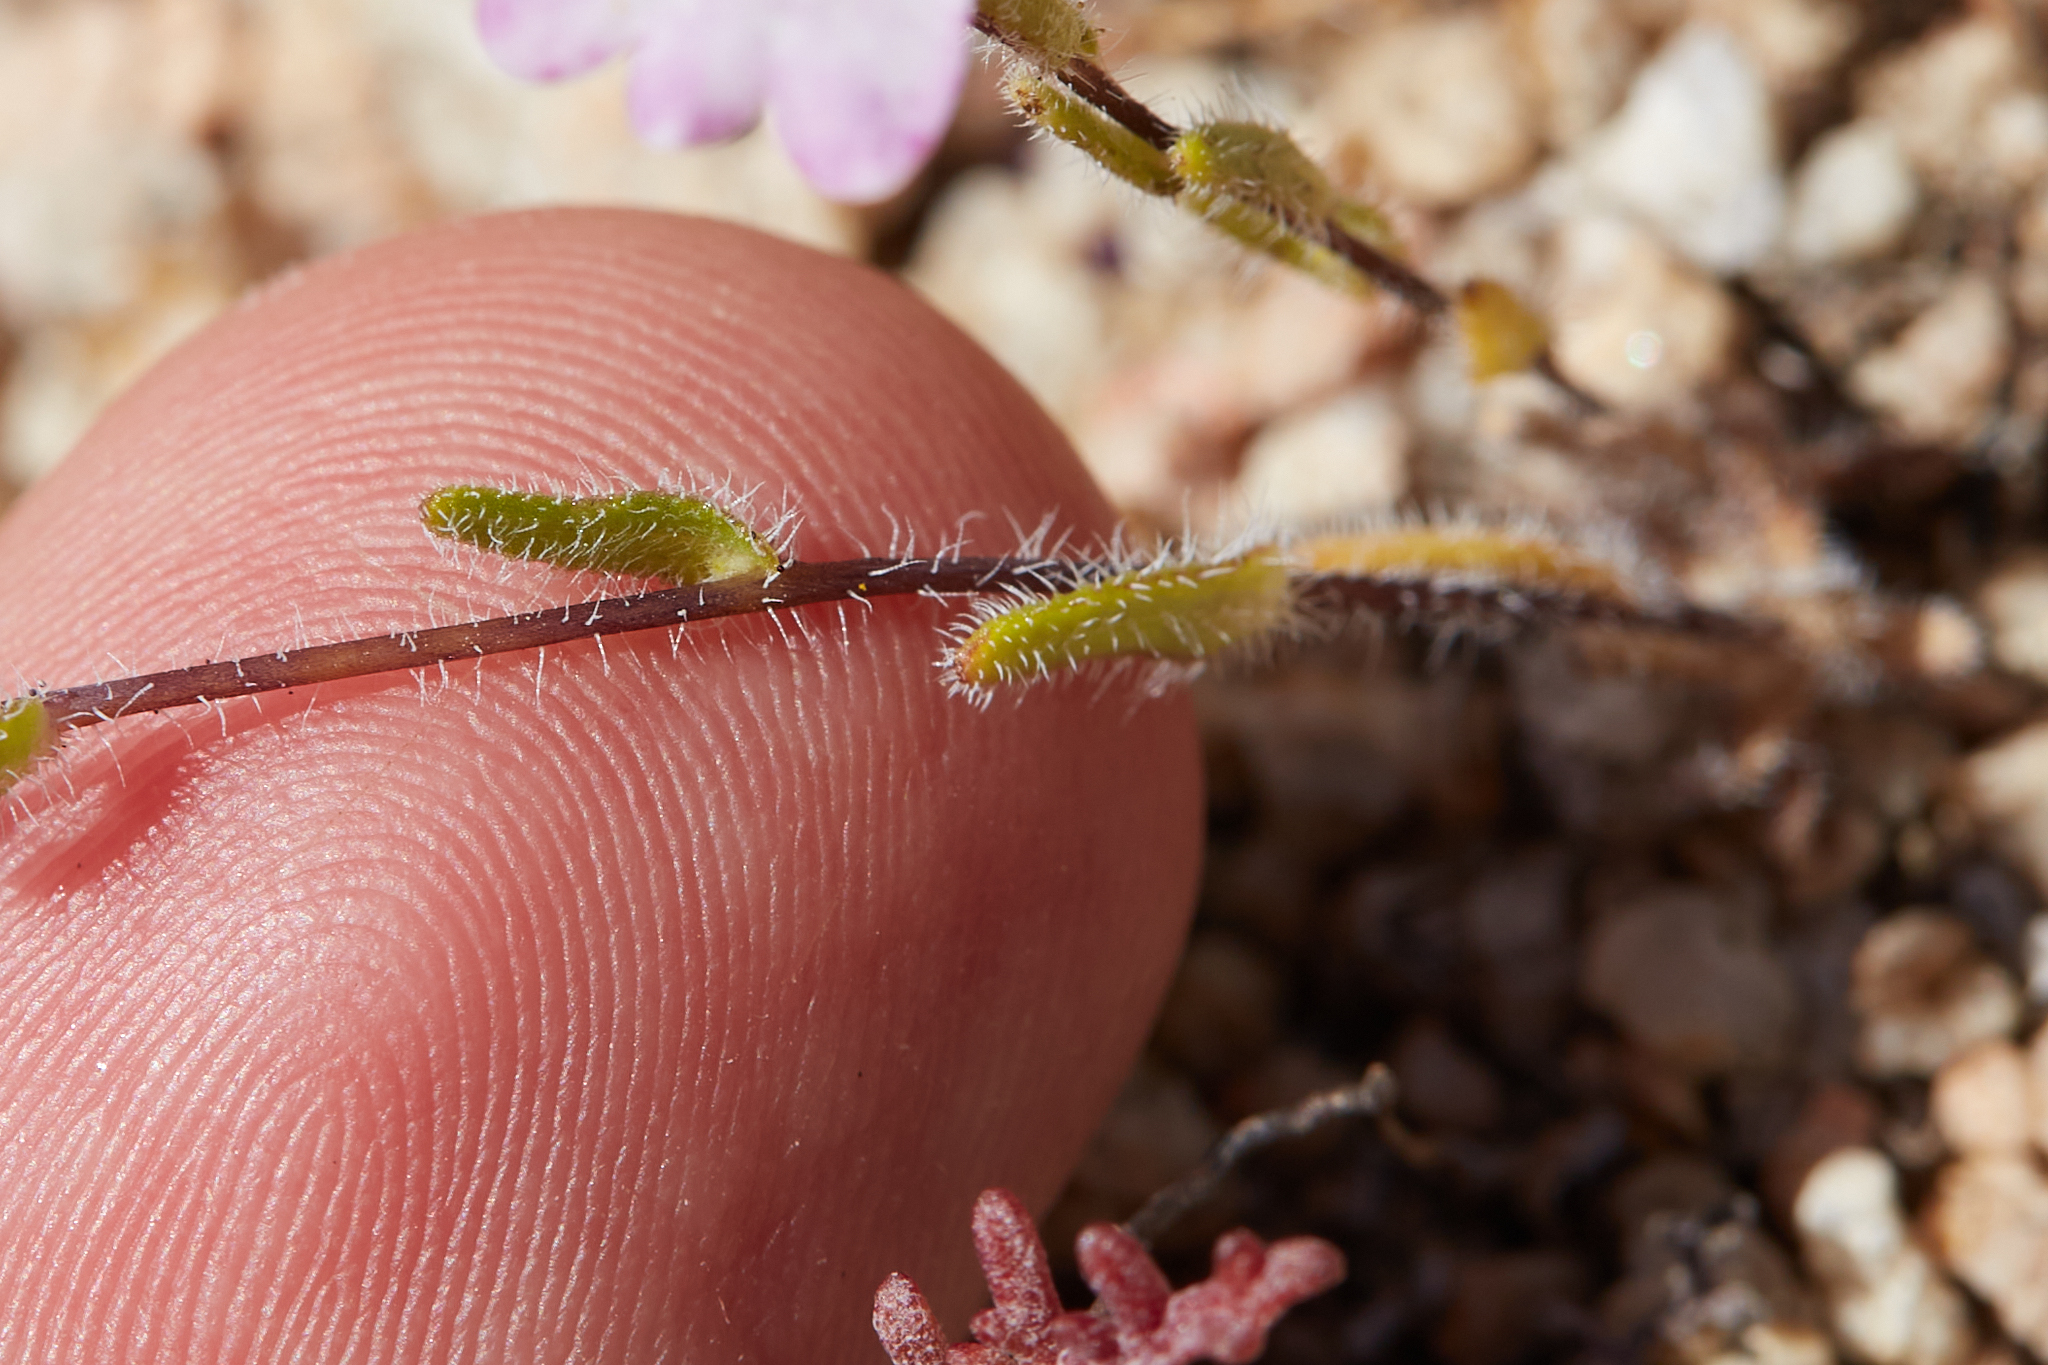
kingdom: Plantae
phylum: Tracheophyta
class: Magnoliopsida
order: Asterales
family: Asteraceae
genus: Layia
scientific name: Layia glandulosa
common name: White layia
